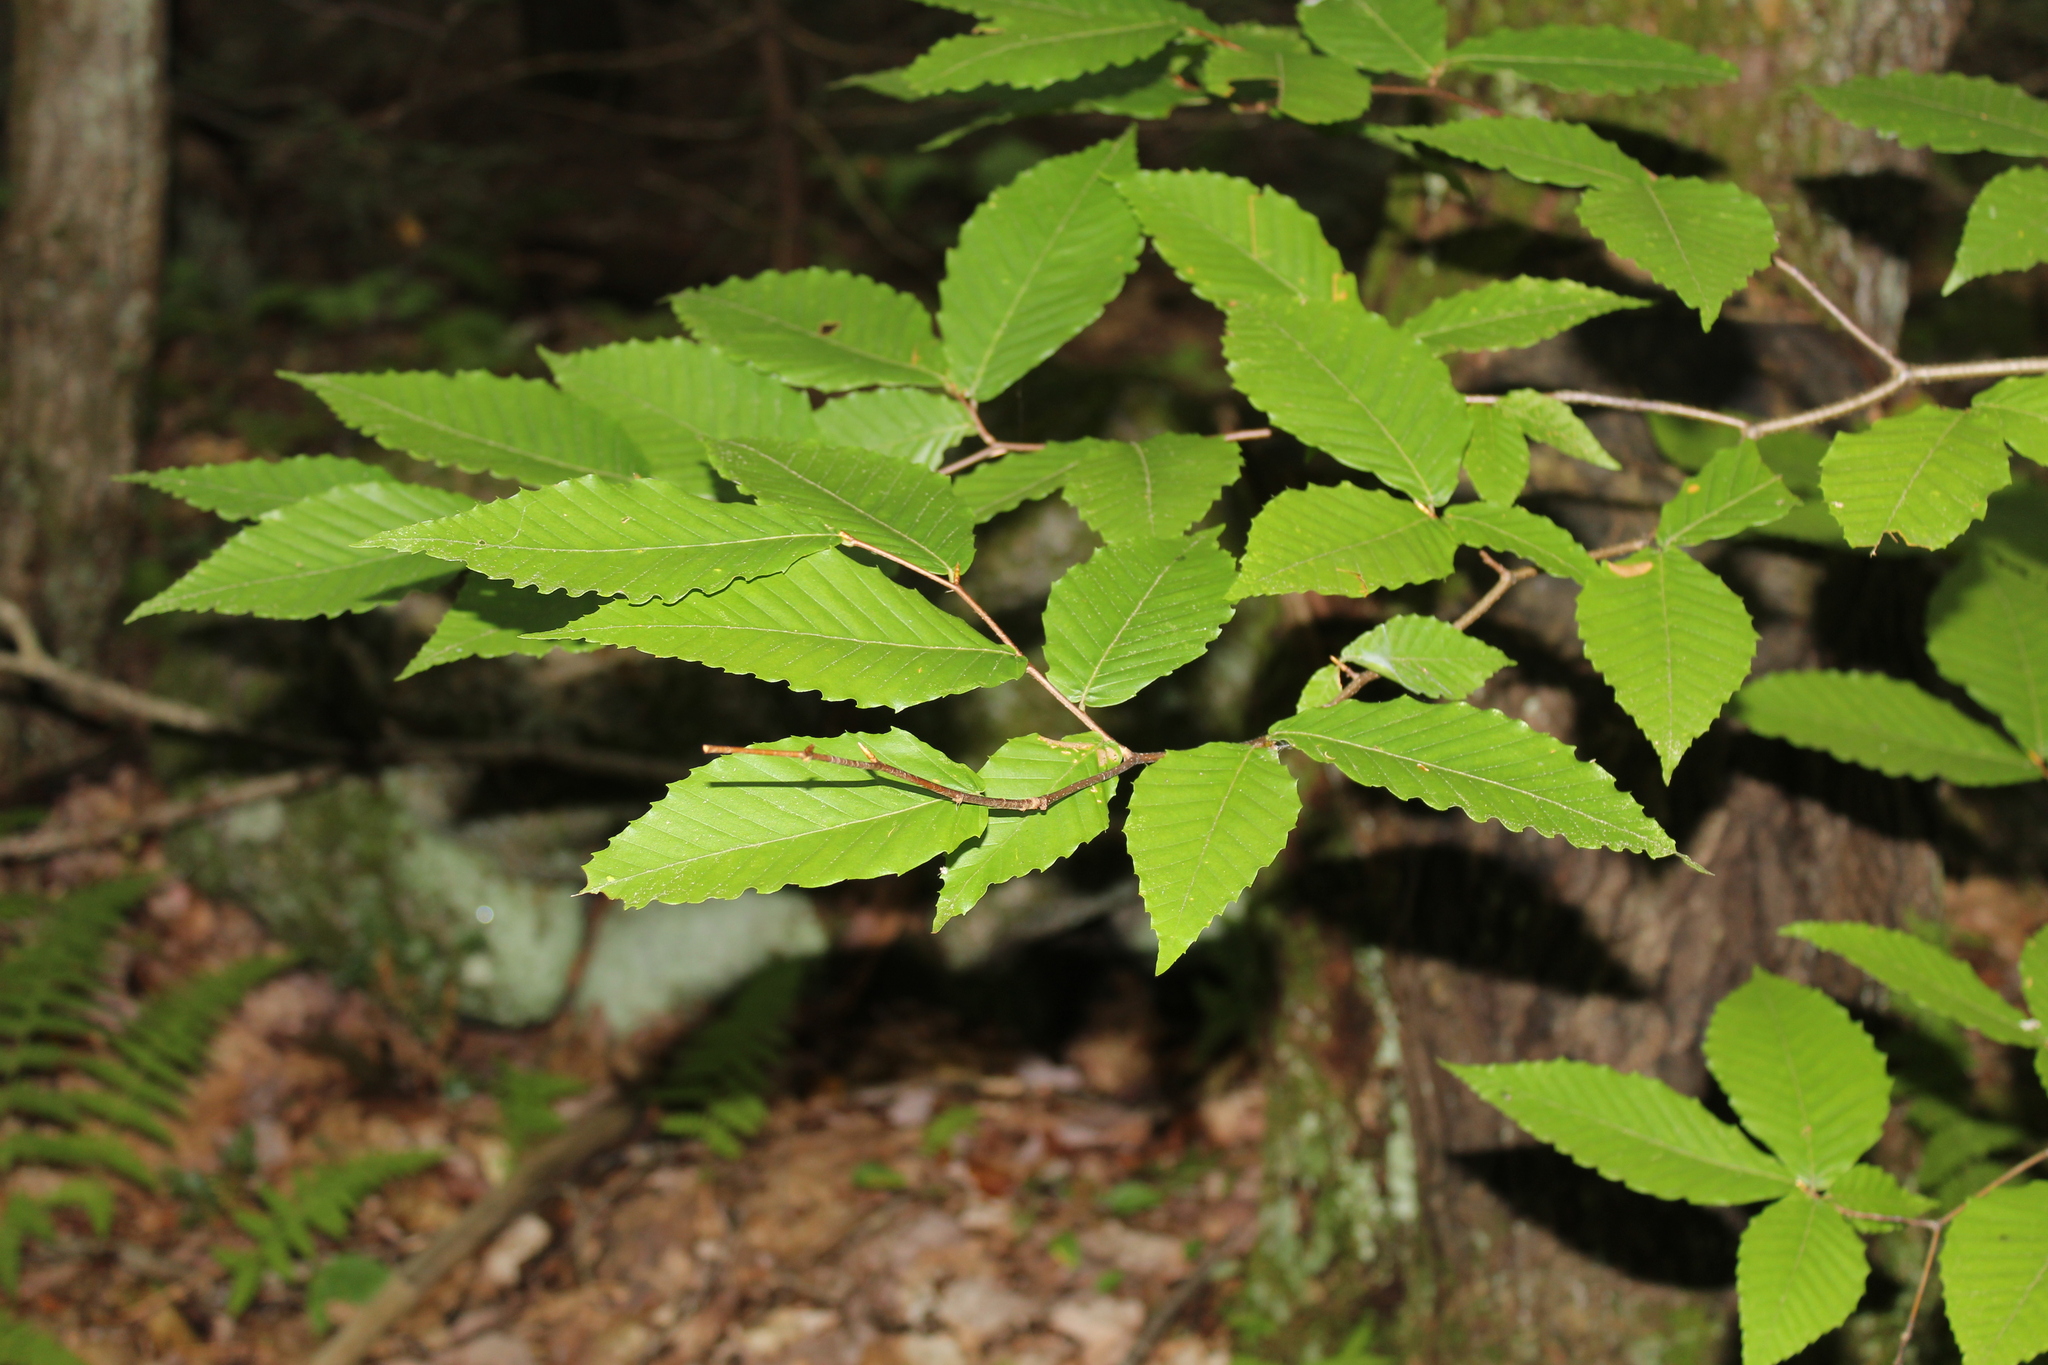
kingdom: Plantae
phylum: Tracheophyta
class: Magnoliopsida
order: Fagales
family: Fagaceae
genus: Fagus
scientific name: Fagus grandifolia
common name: American beech
